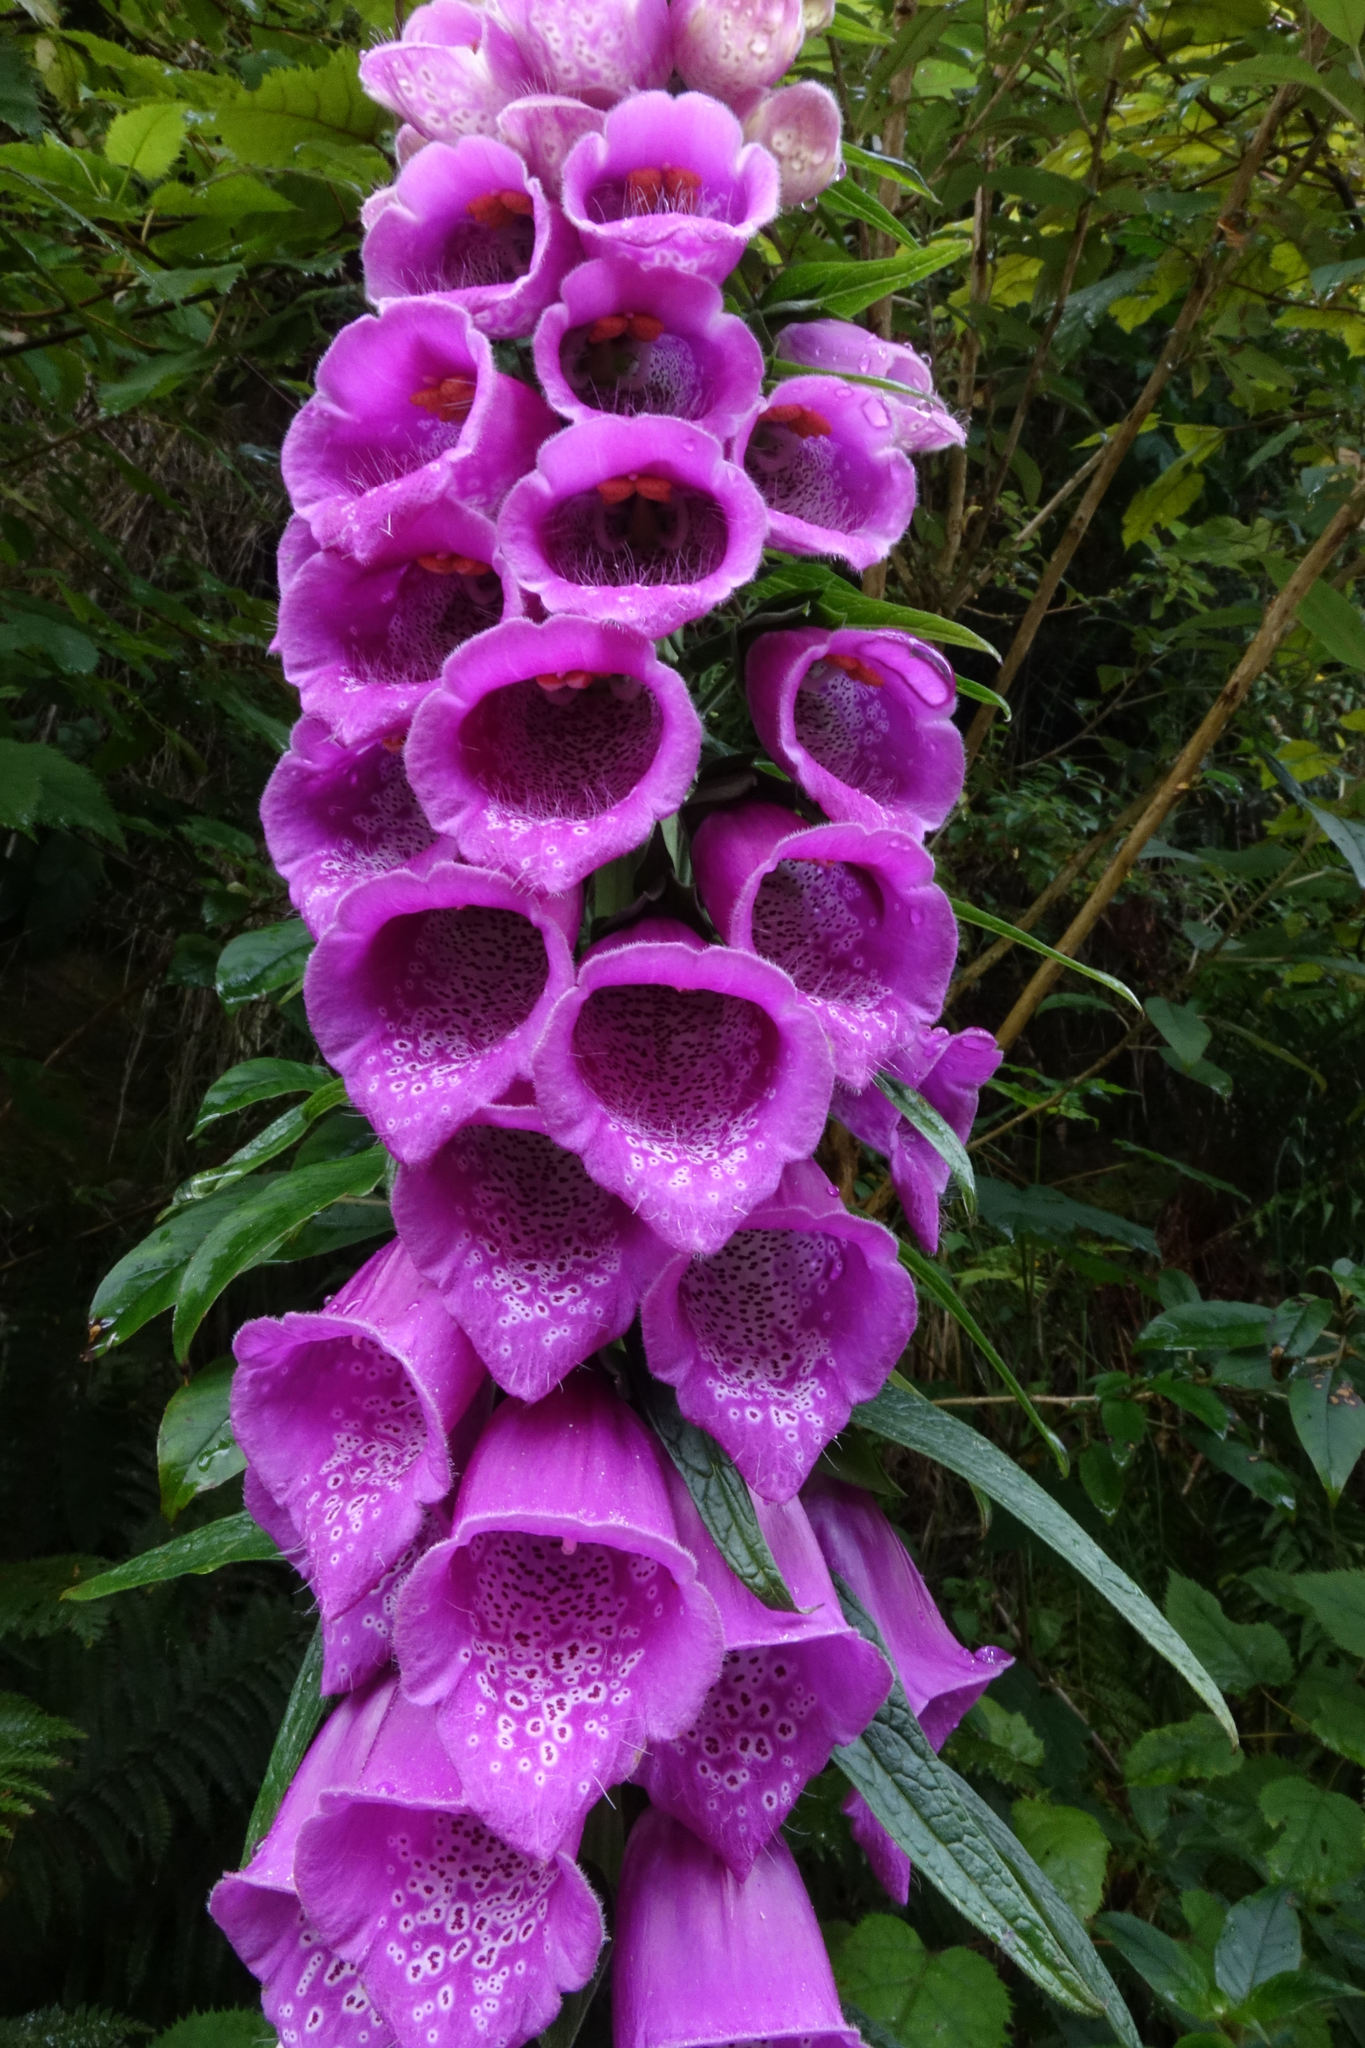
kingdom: Plantae
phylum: Tracheophyta
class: Magnoliopsida
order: Lamiales
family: Plantaginaceae
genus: Digitalis
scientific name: Digitalis purpurea
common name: Foxglove
